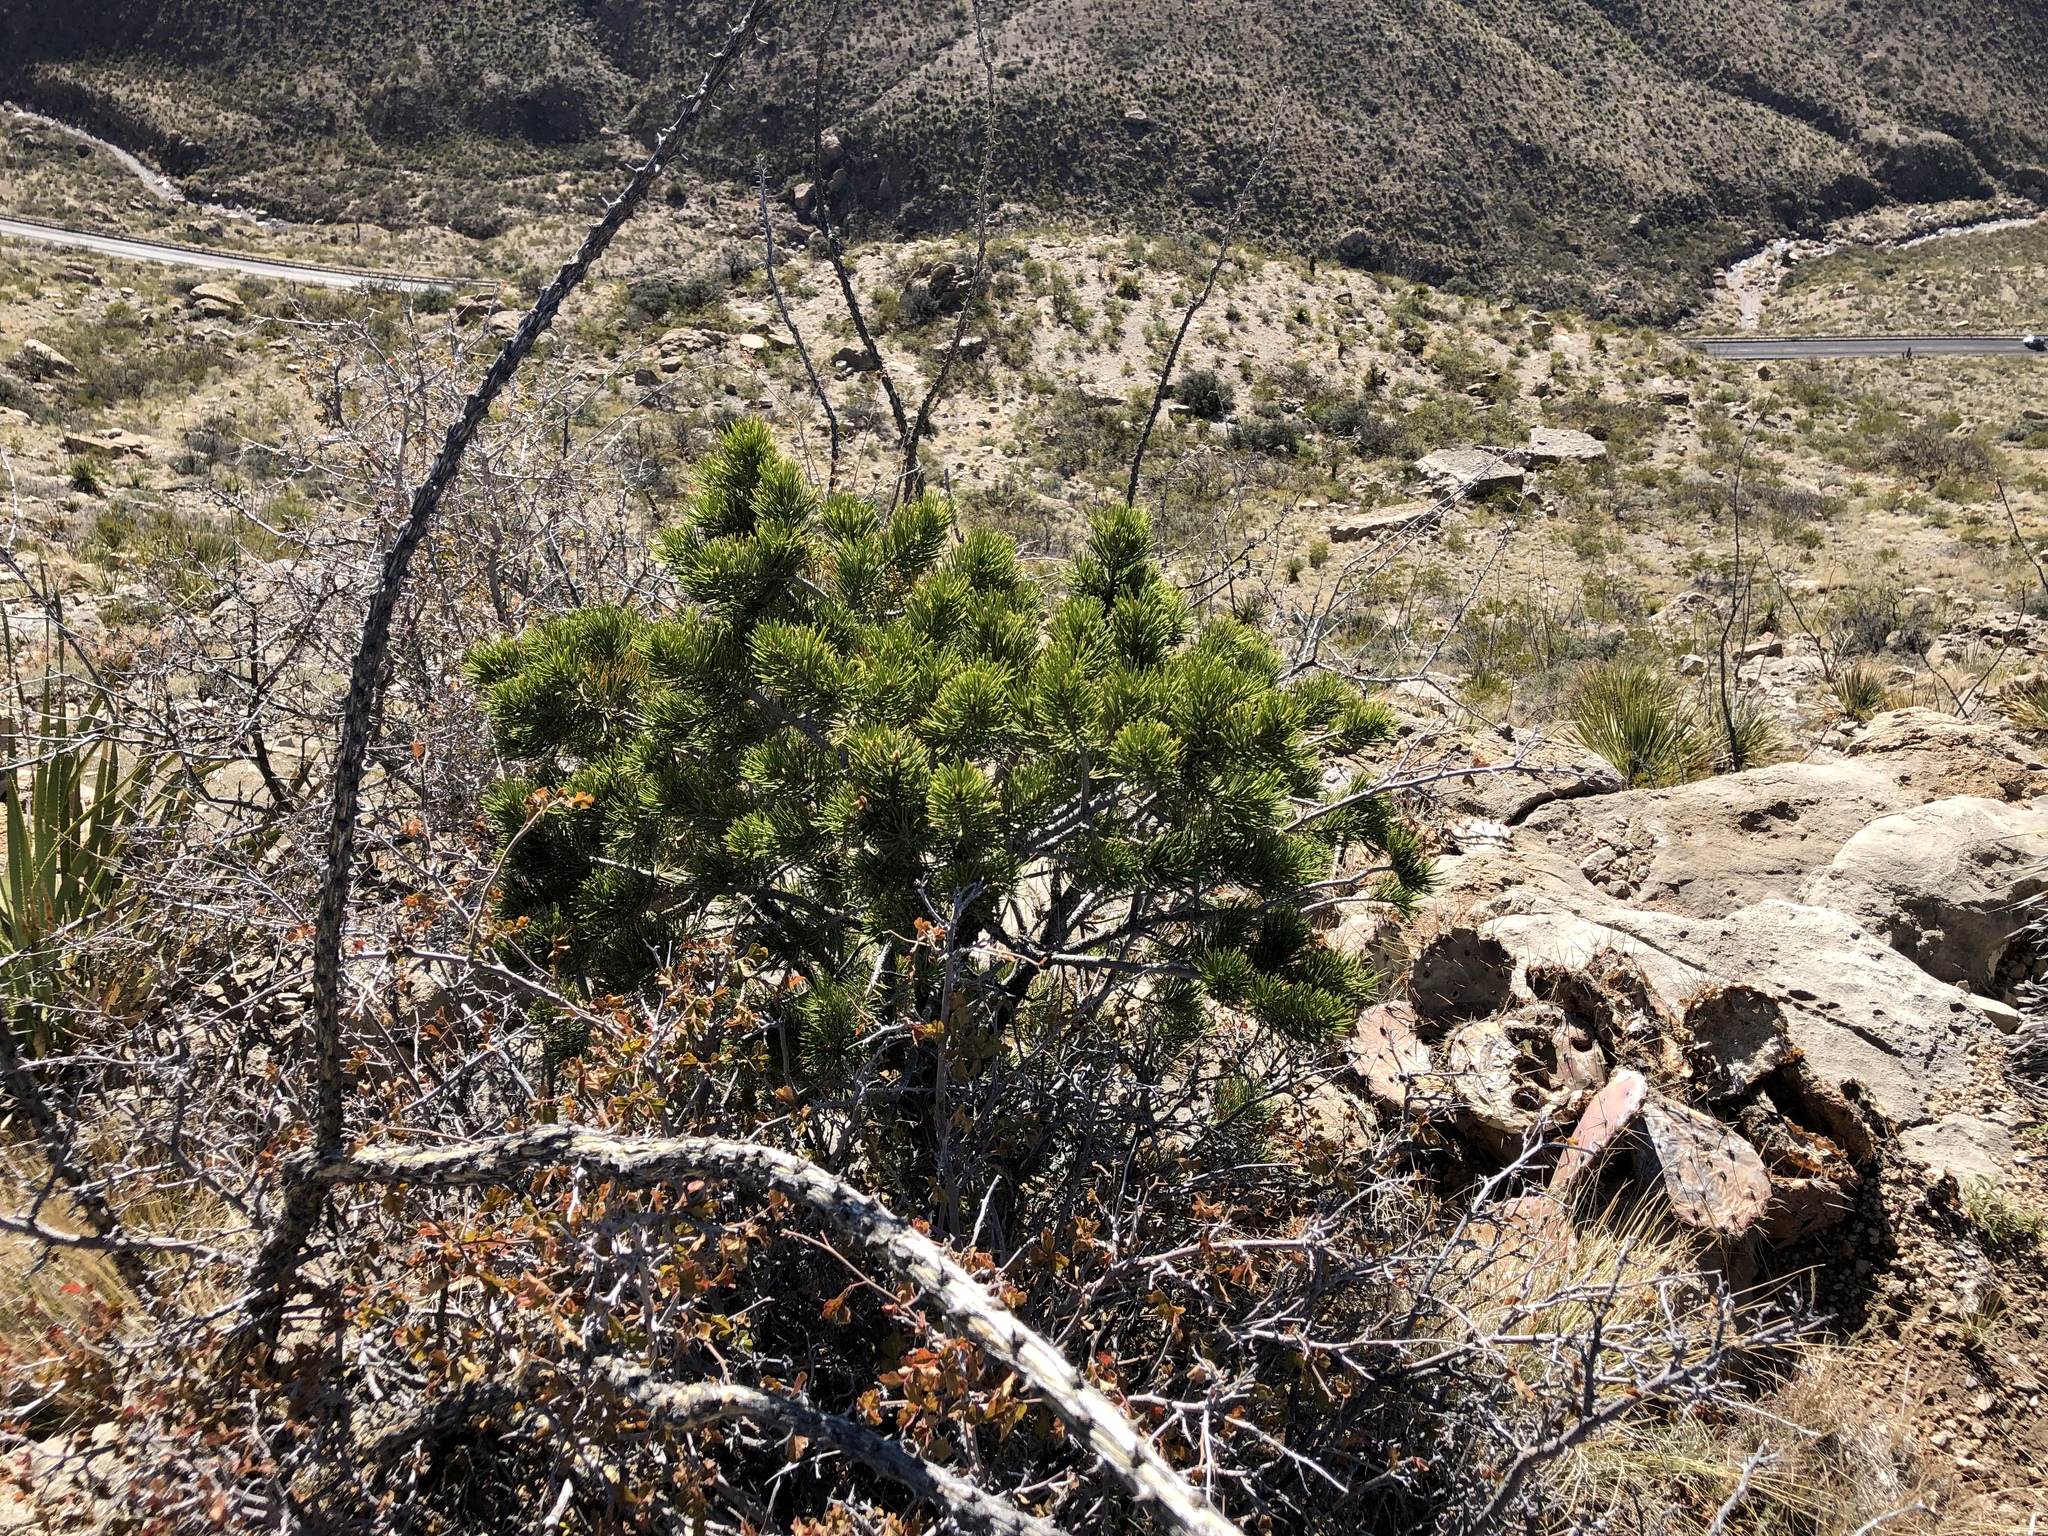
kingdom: Plantae
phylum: Tracheophyta
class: Pinopsida
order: Pinales
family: Pinaceae
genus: Pinus
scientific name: Pinus edulis
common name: Colorado pinyon
